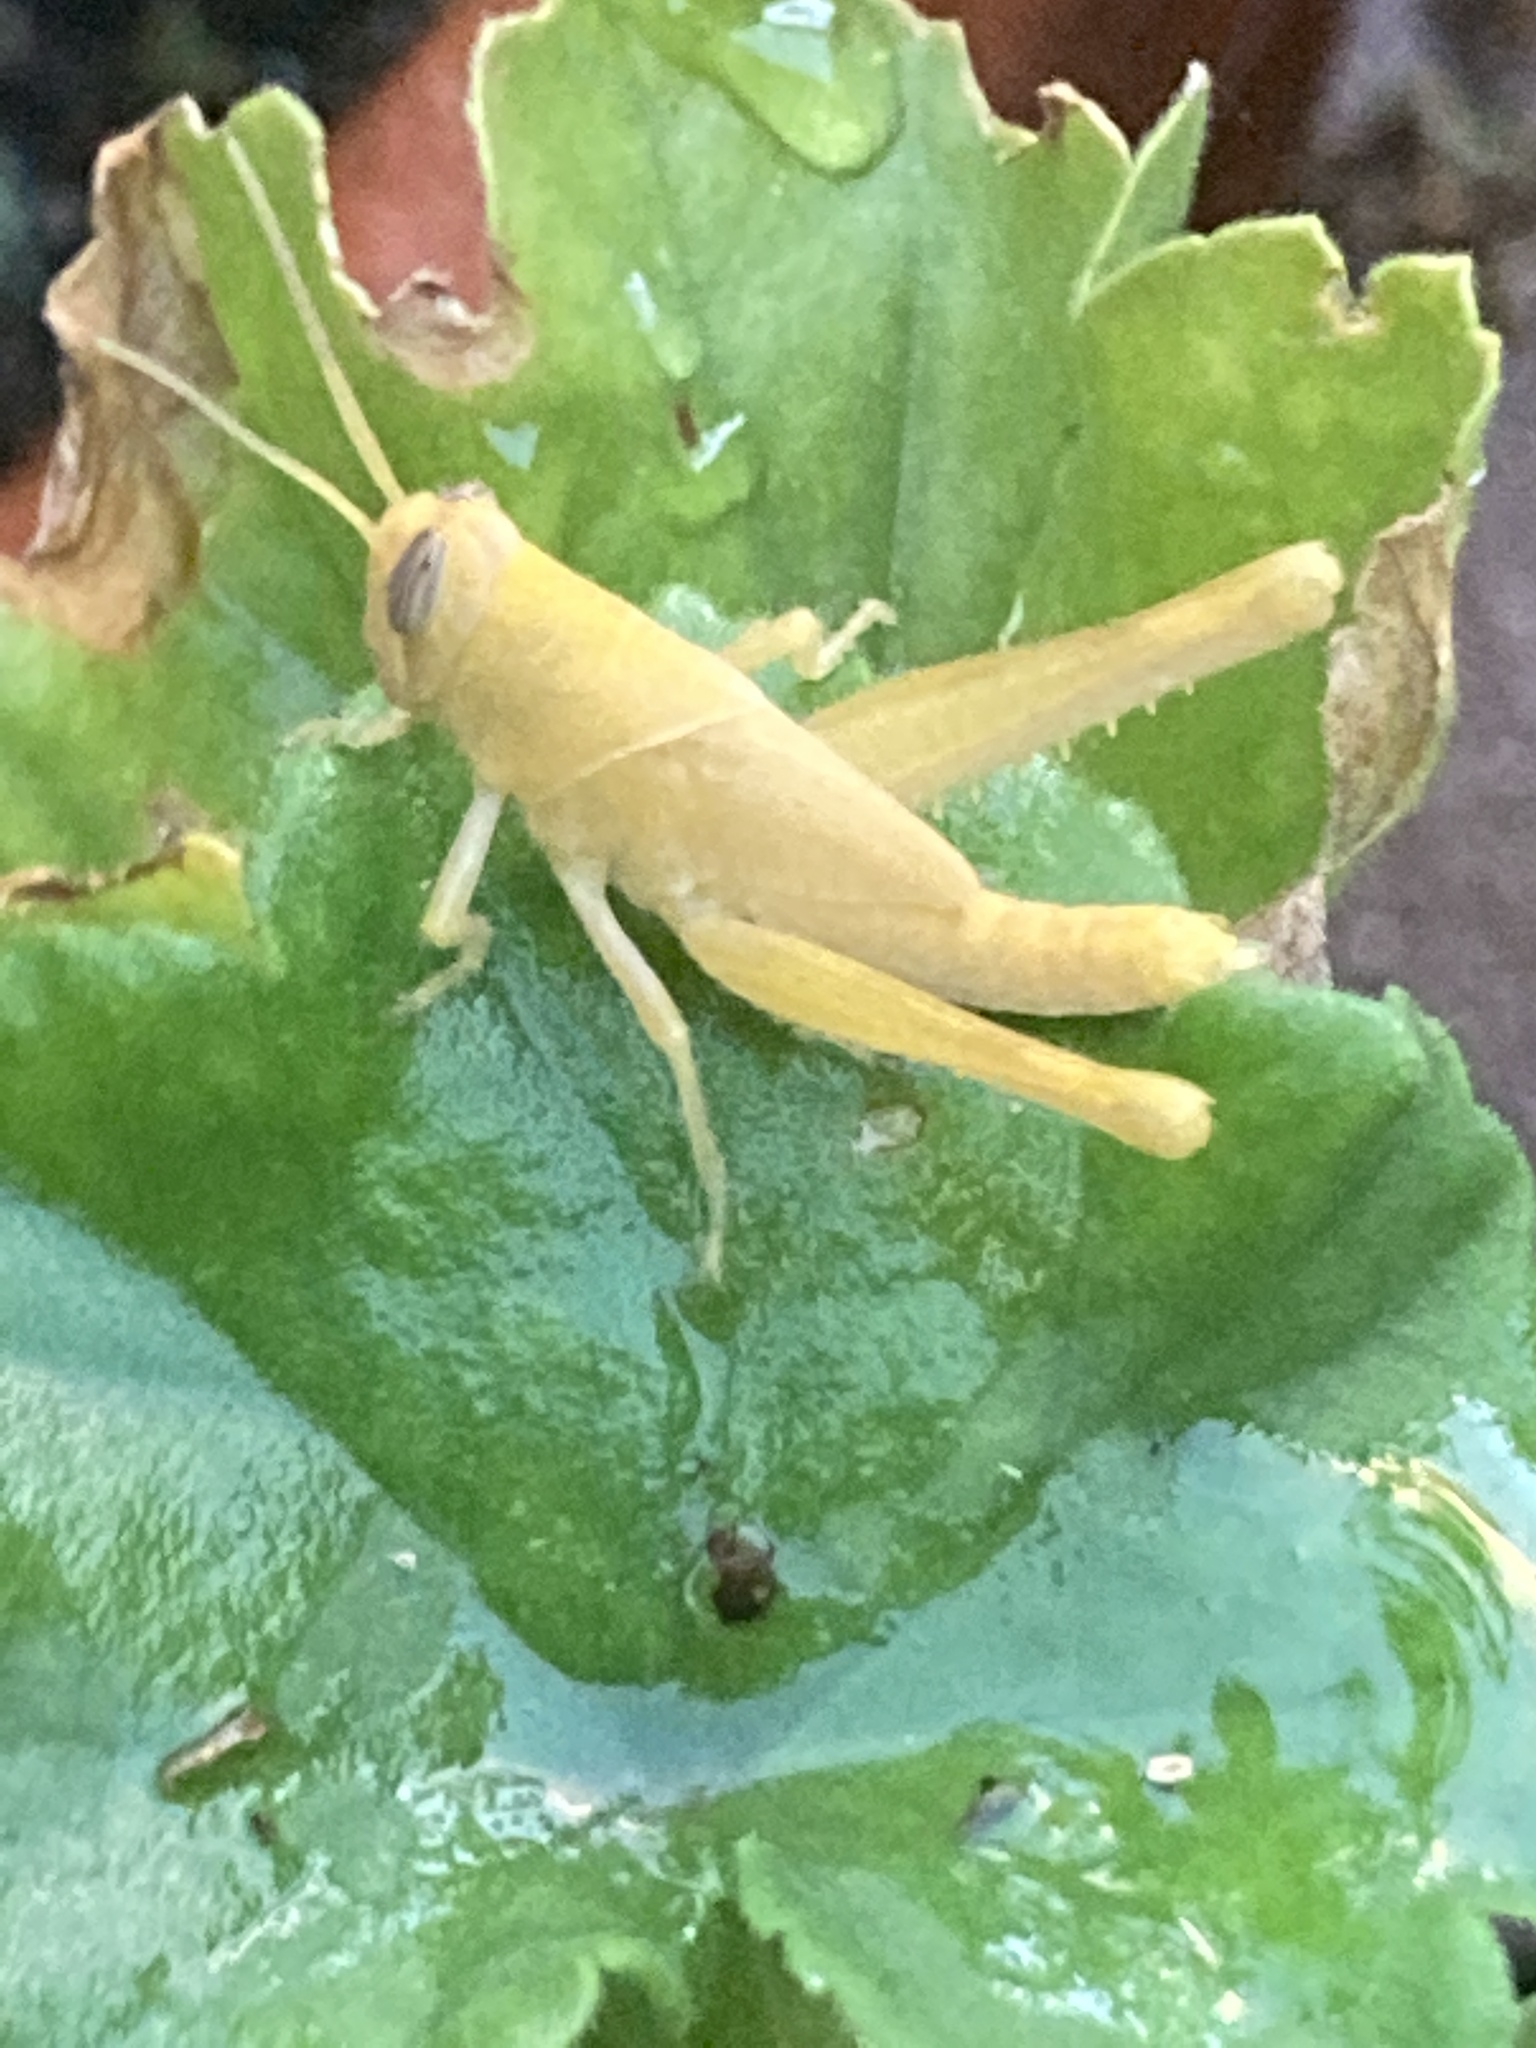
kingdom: Animalia
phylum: Arthropoda
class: Insecta
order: Orthoptera
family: Acrididae
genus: Schistocerca
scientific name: Schistocerca nitens
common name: Vagrant grasshopper
